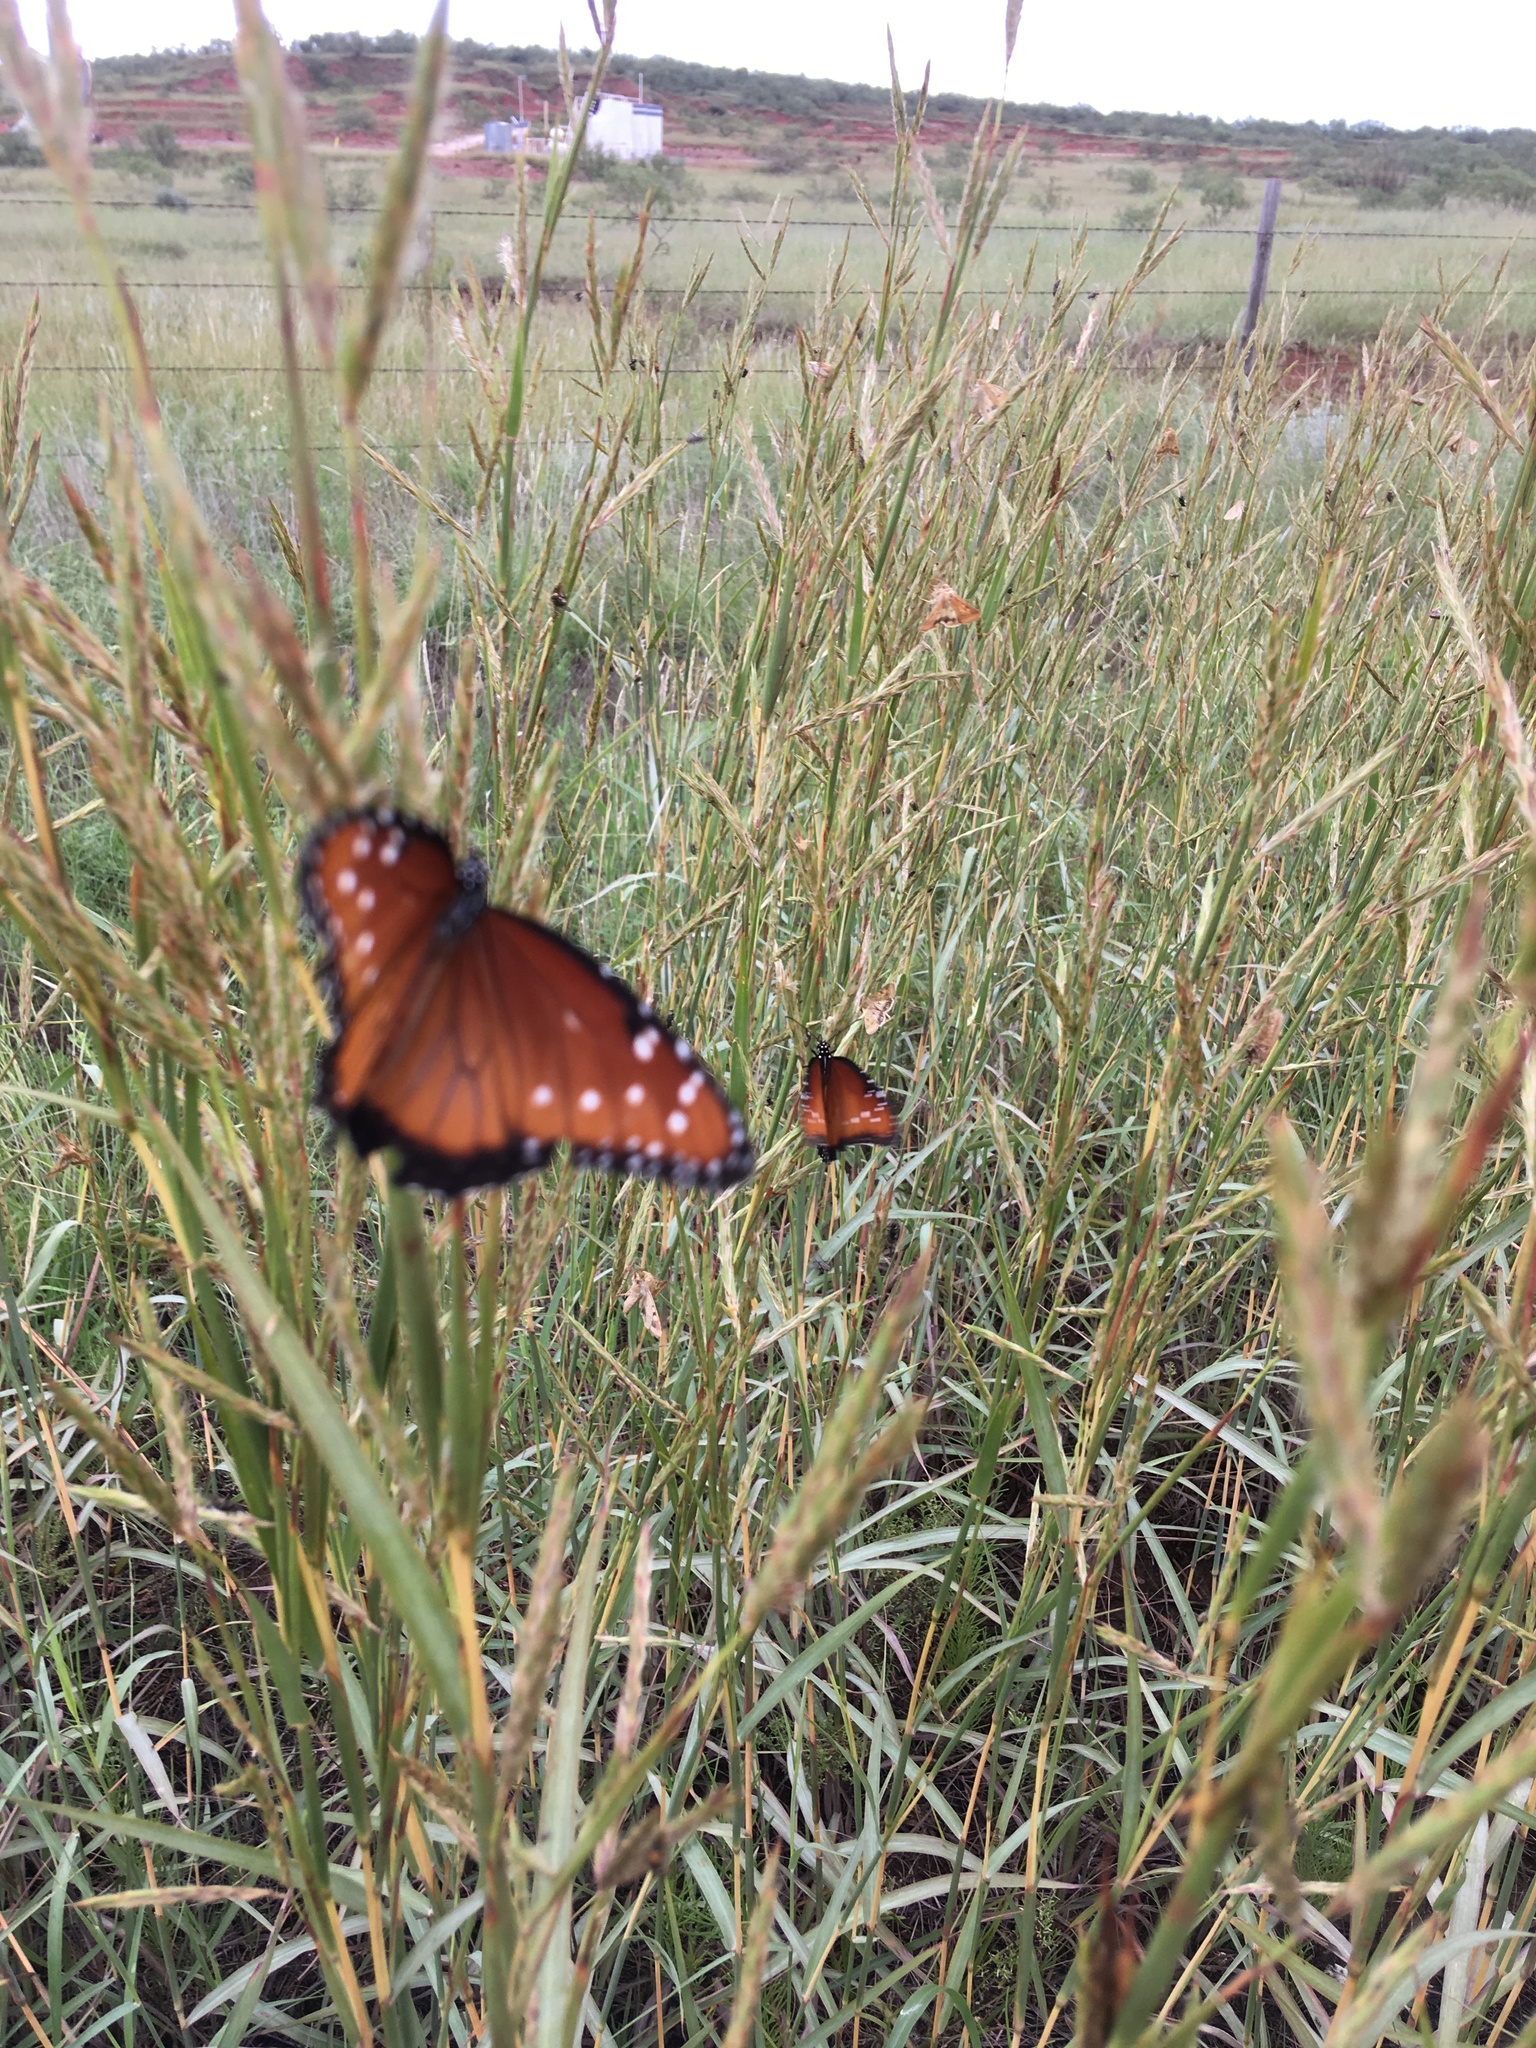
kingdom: Animalia
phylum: Arthropoda
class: Insecta
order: Lepidoptera
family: Nymphalidae
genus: Danaus
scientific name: Danaus gilippus
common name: Queen
